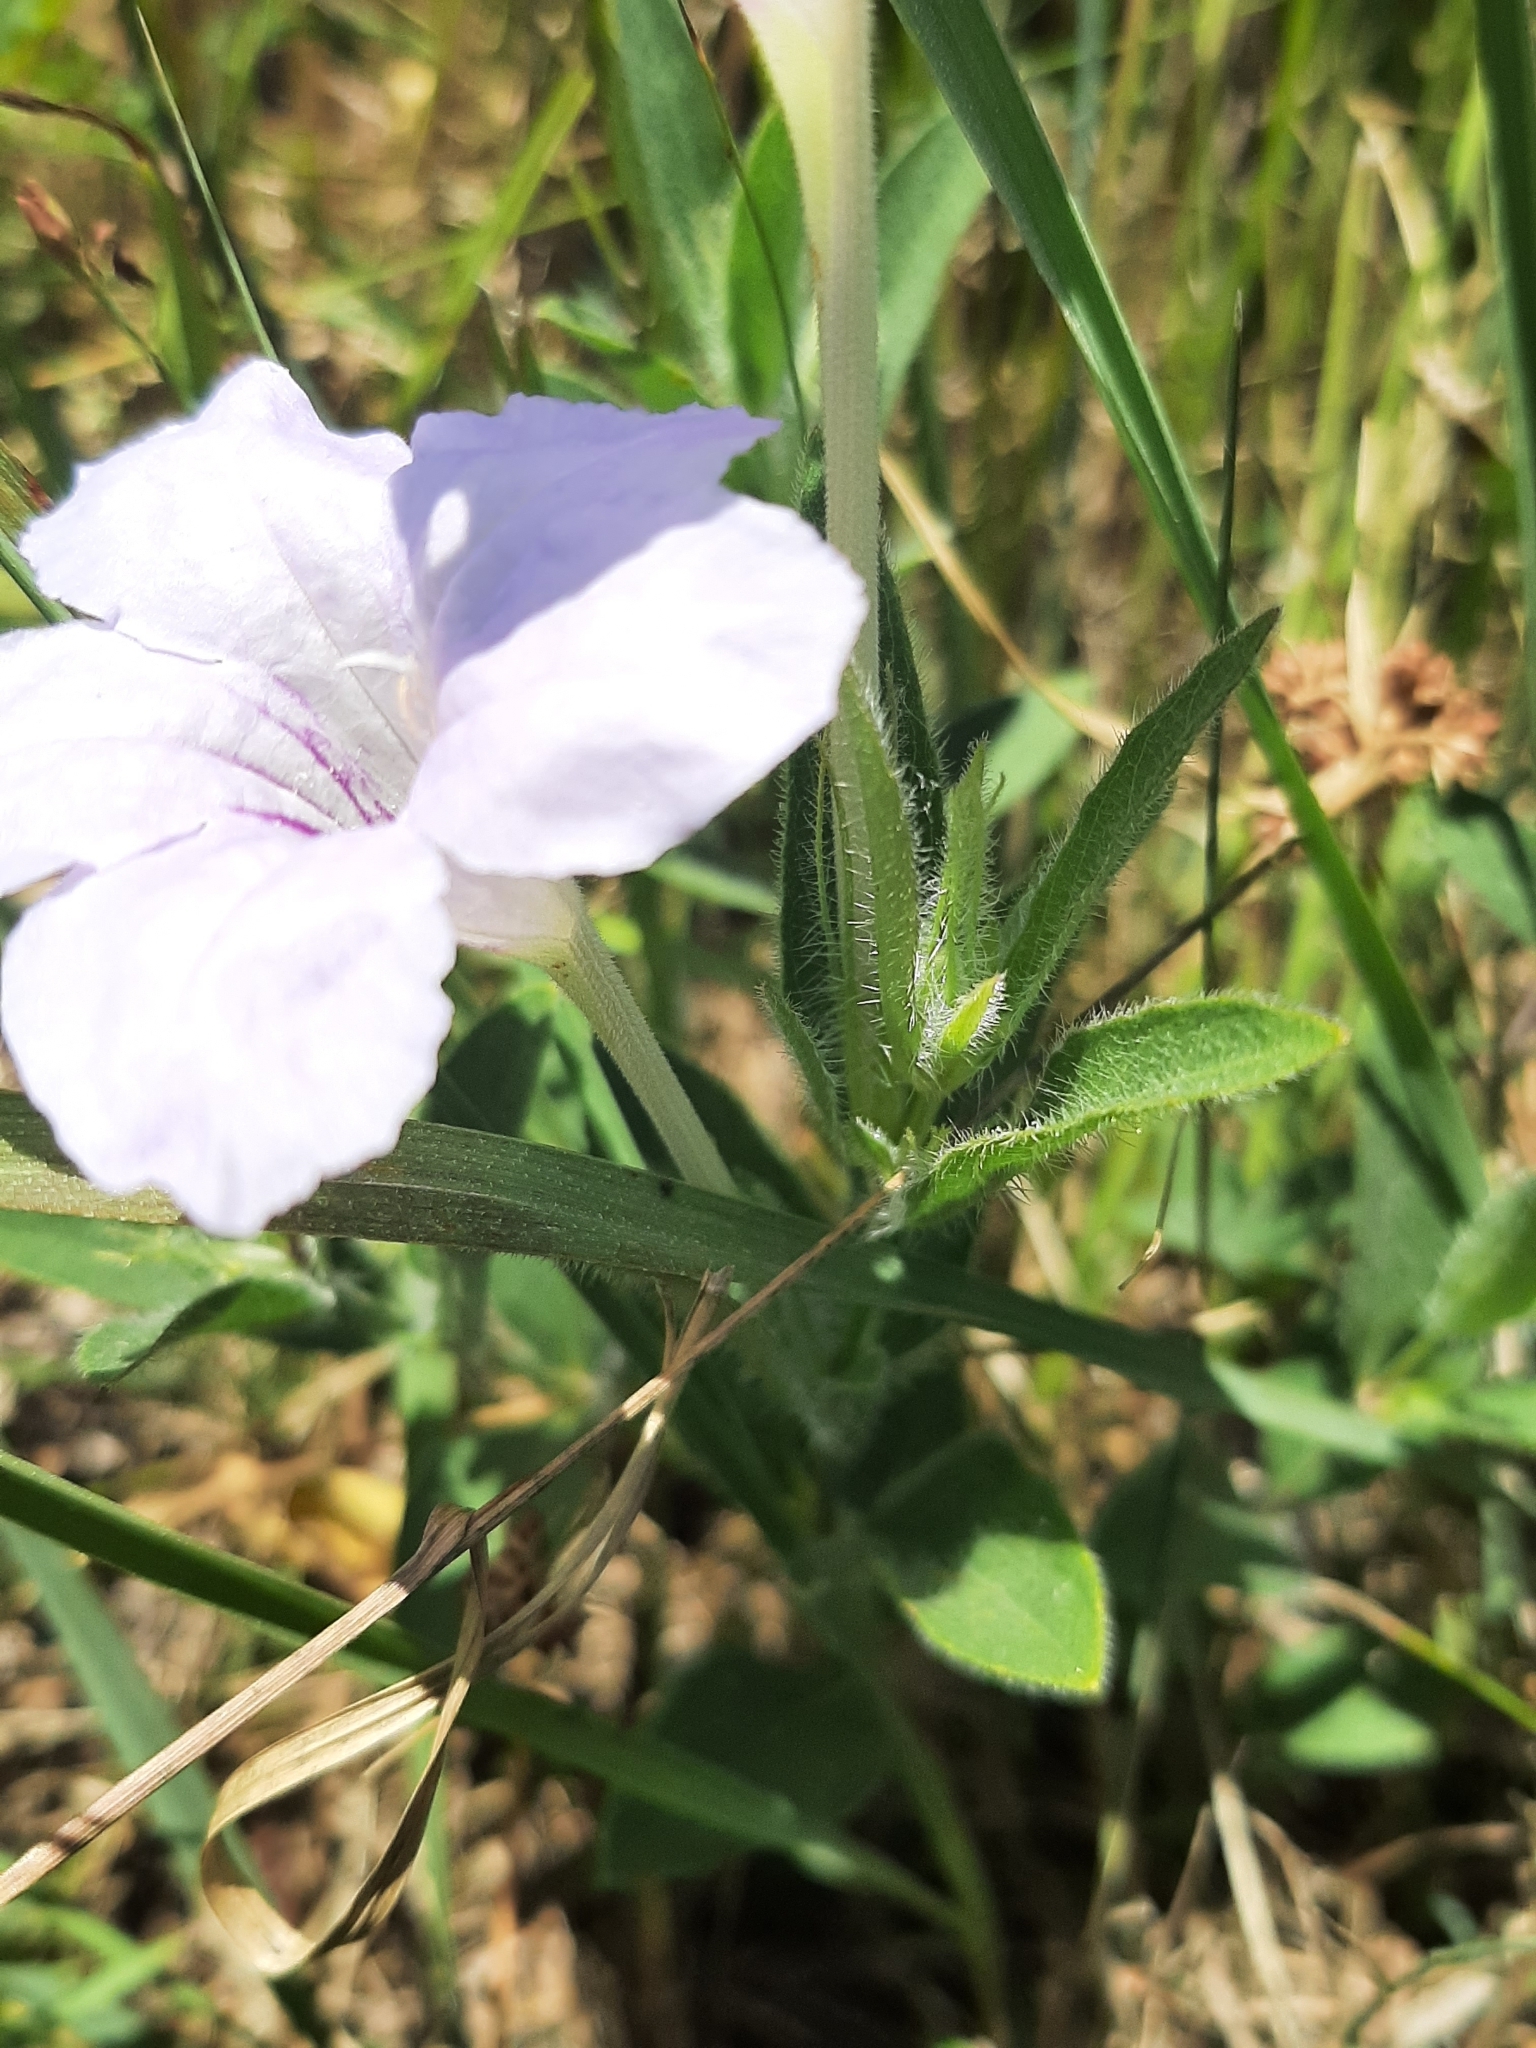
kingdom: Plantae
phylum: Tracheophyta
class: Magnoliopsida
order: Lamiales
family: Acanthaceae
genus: Ruellia
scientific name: Ruellia humilis
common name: Fringe-leaf ruellia
